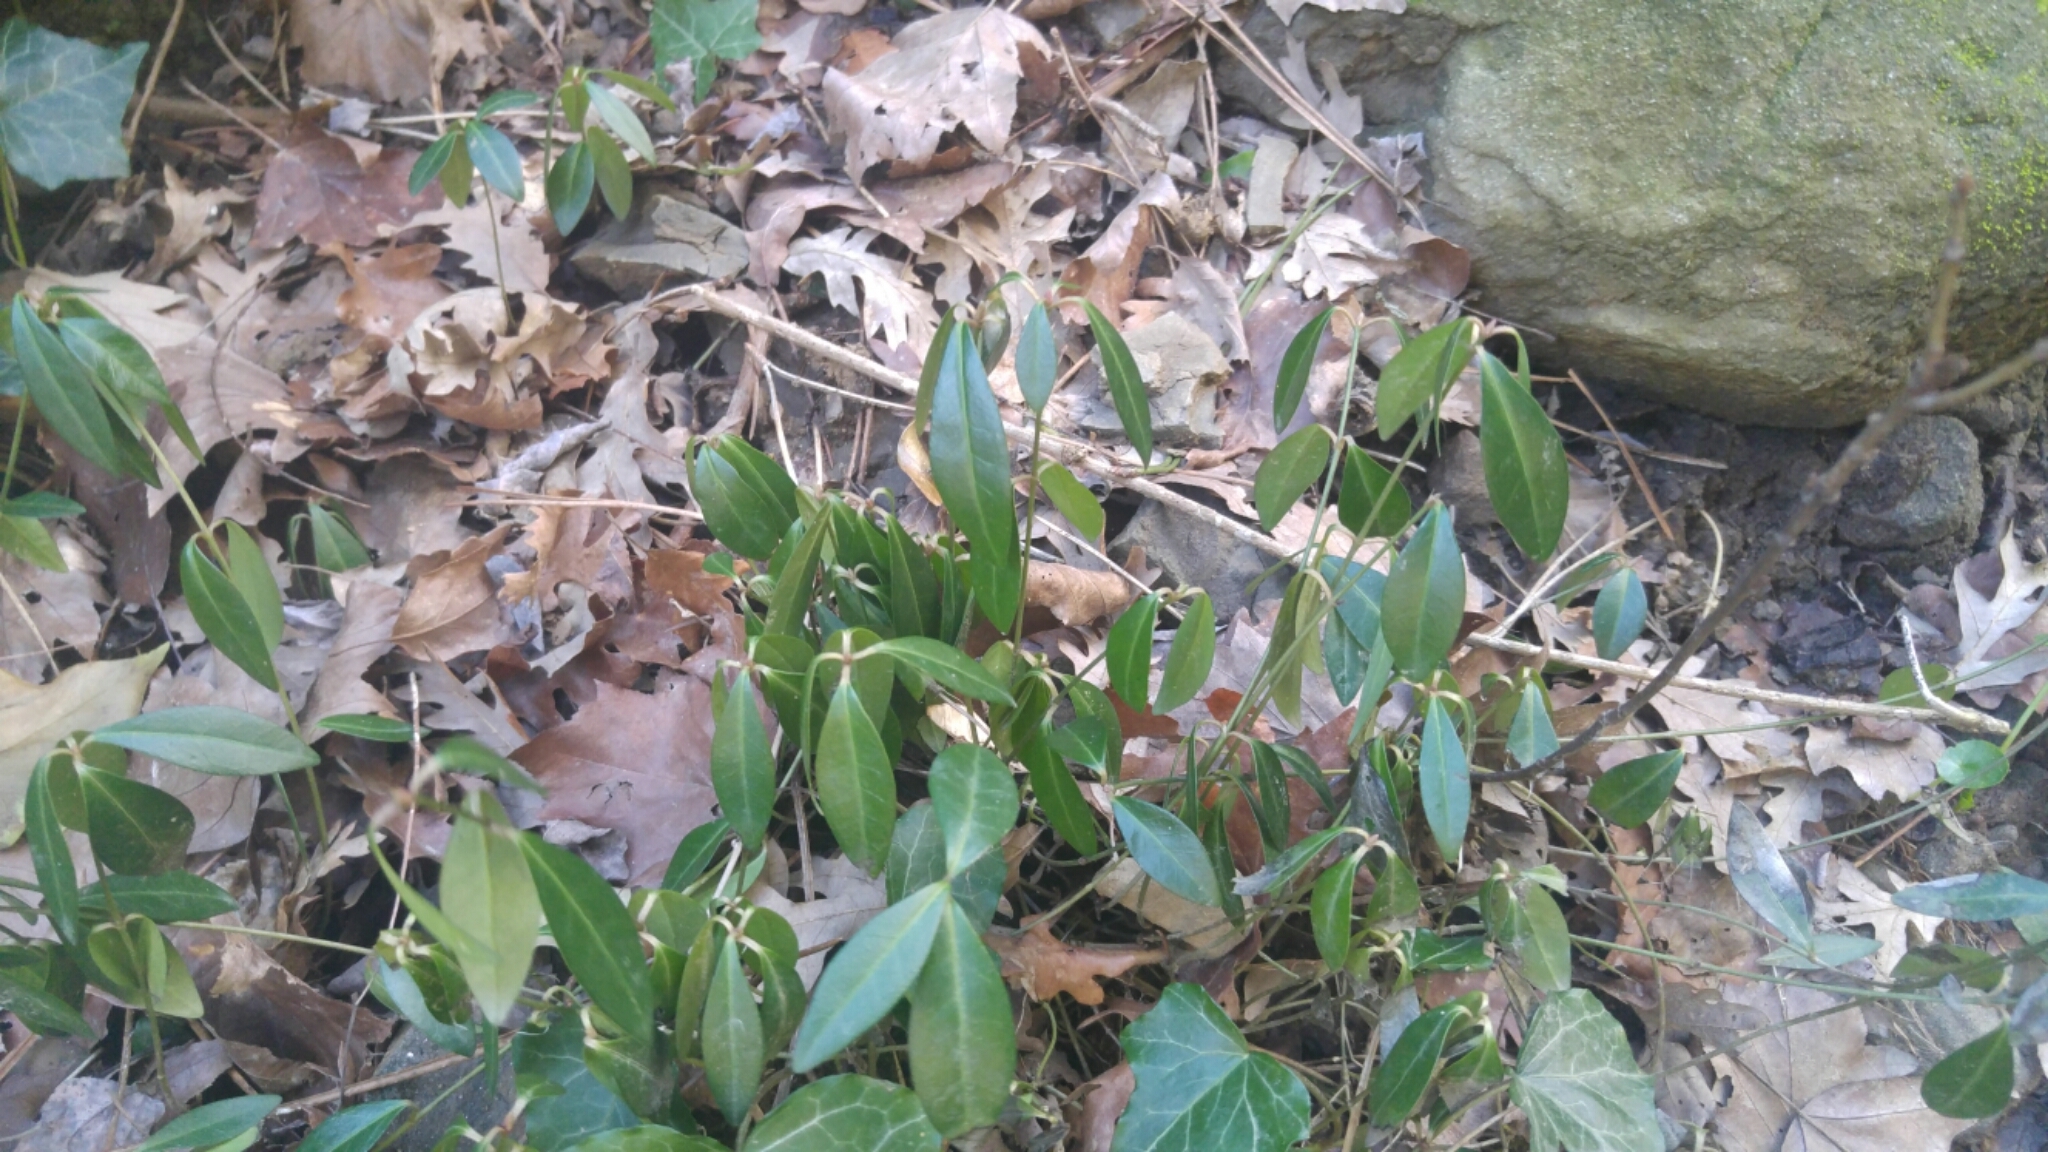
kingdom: Plantae
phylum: Tracheophyta
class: Magnoliopsida
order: Gentianales
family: Apocynaceae
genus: Vinca
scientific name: Vinca minor
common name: Lesser periwinkle
